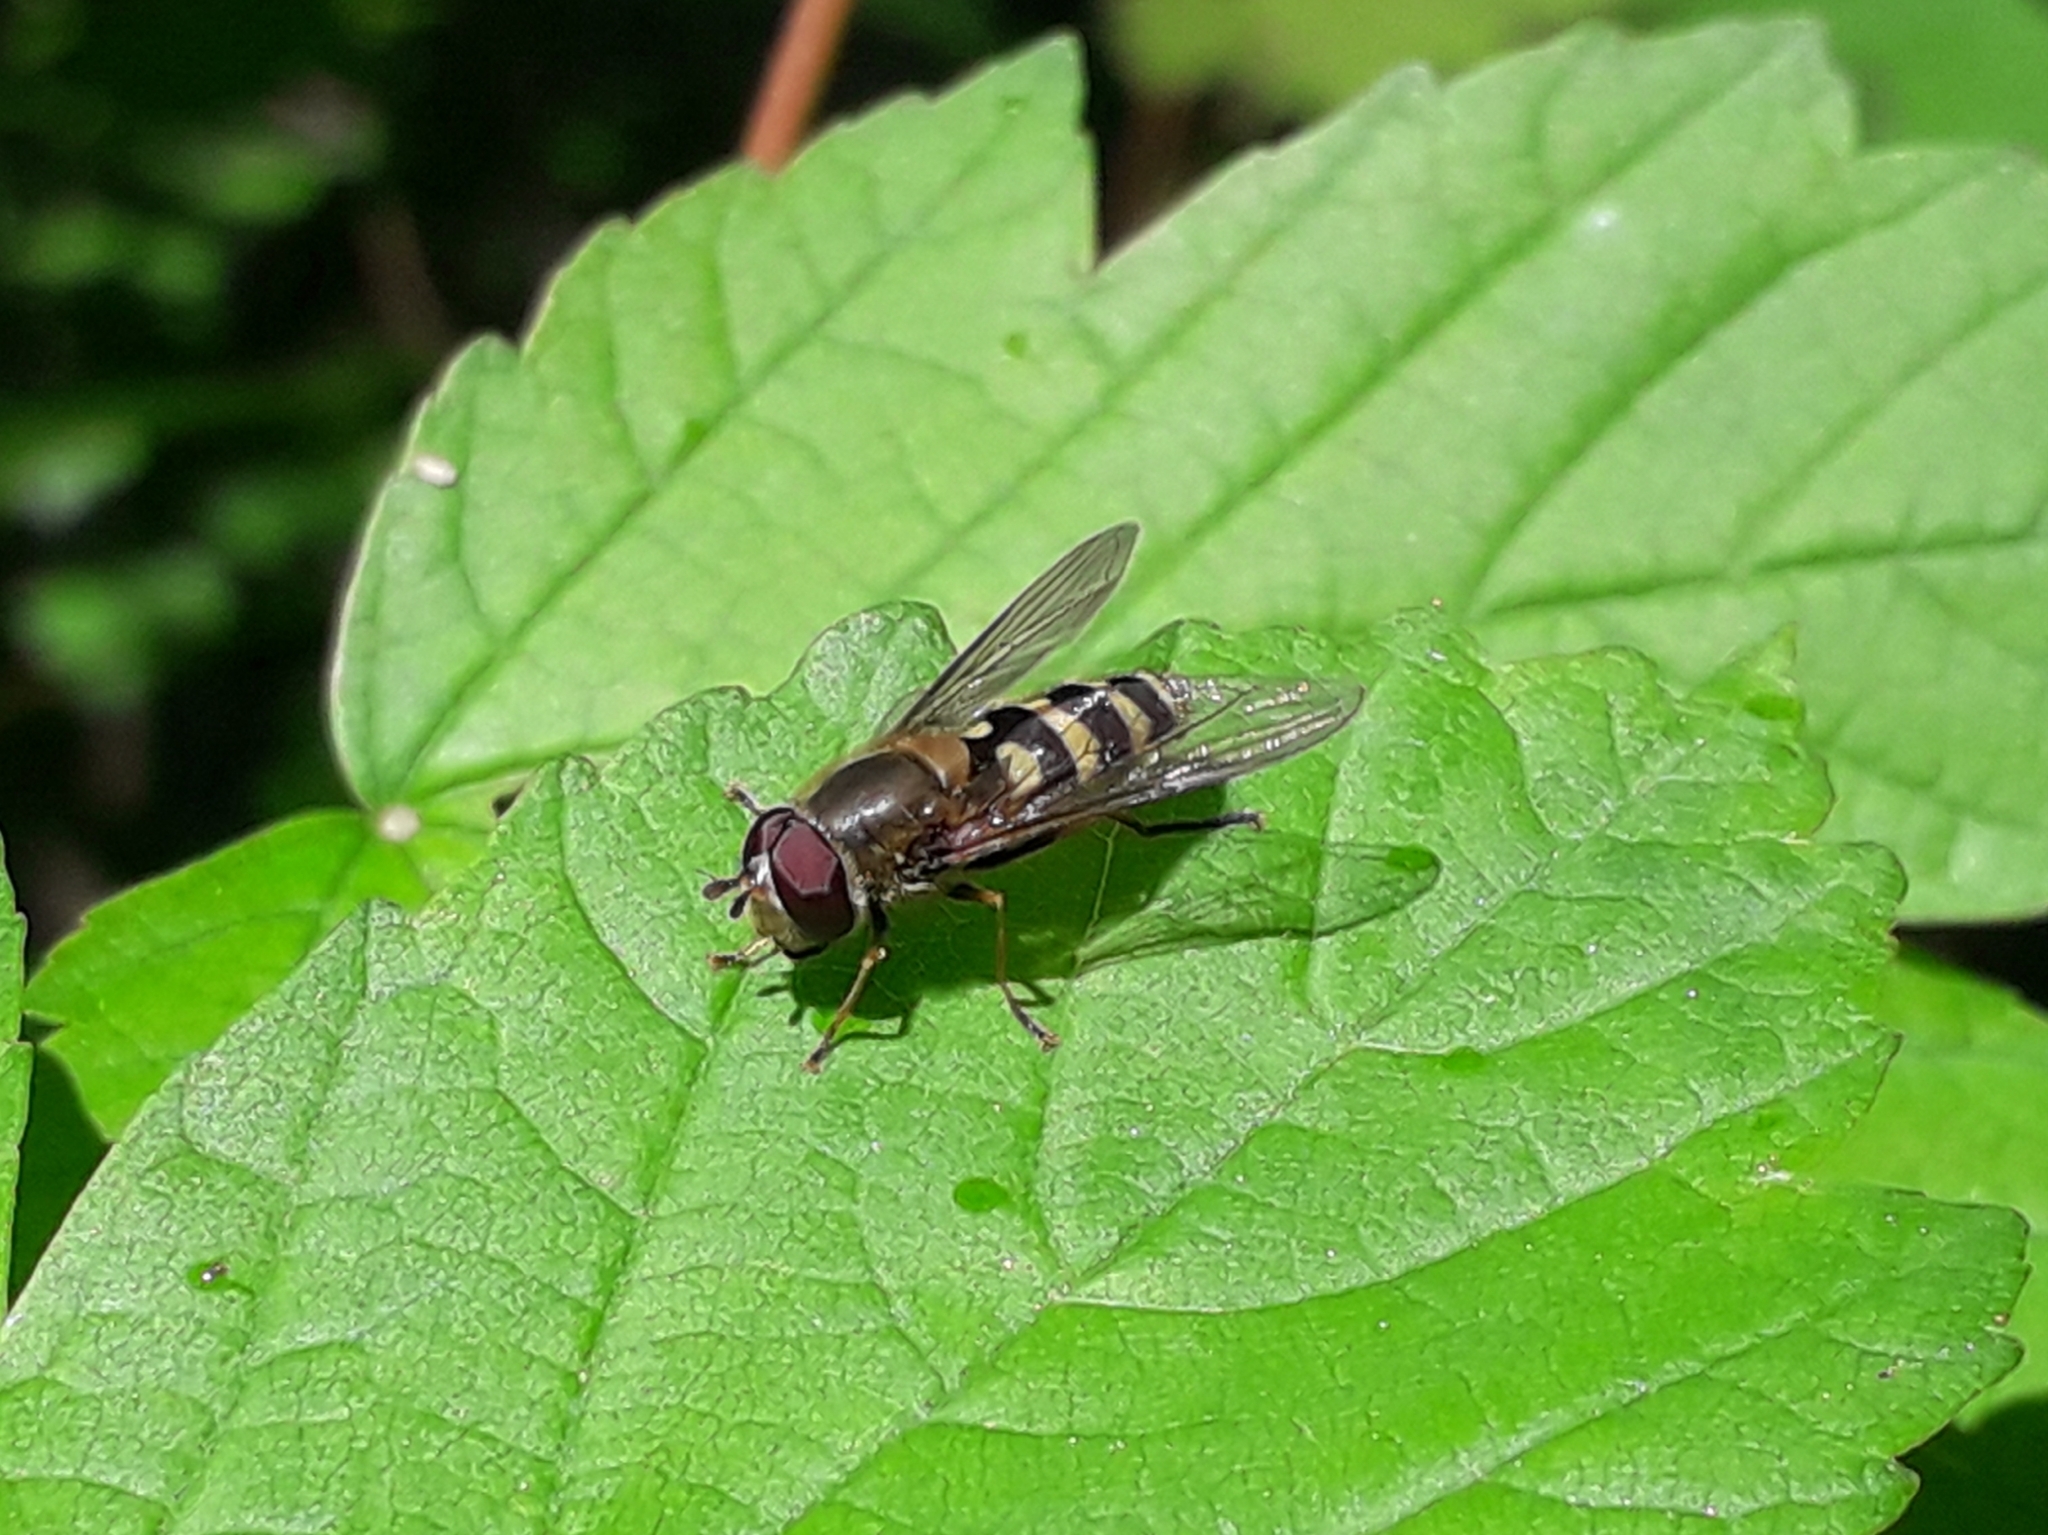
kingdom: Animalia
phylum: Arthropoda
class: Insecta
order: Diptera
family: Syrphidae
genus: Syrphus
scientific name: Syrphus
